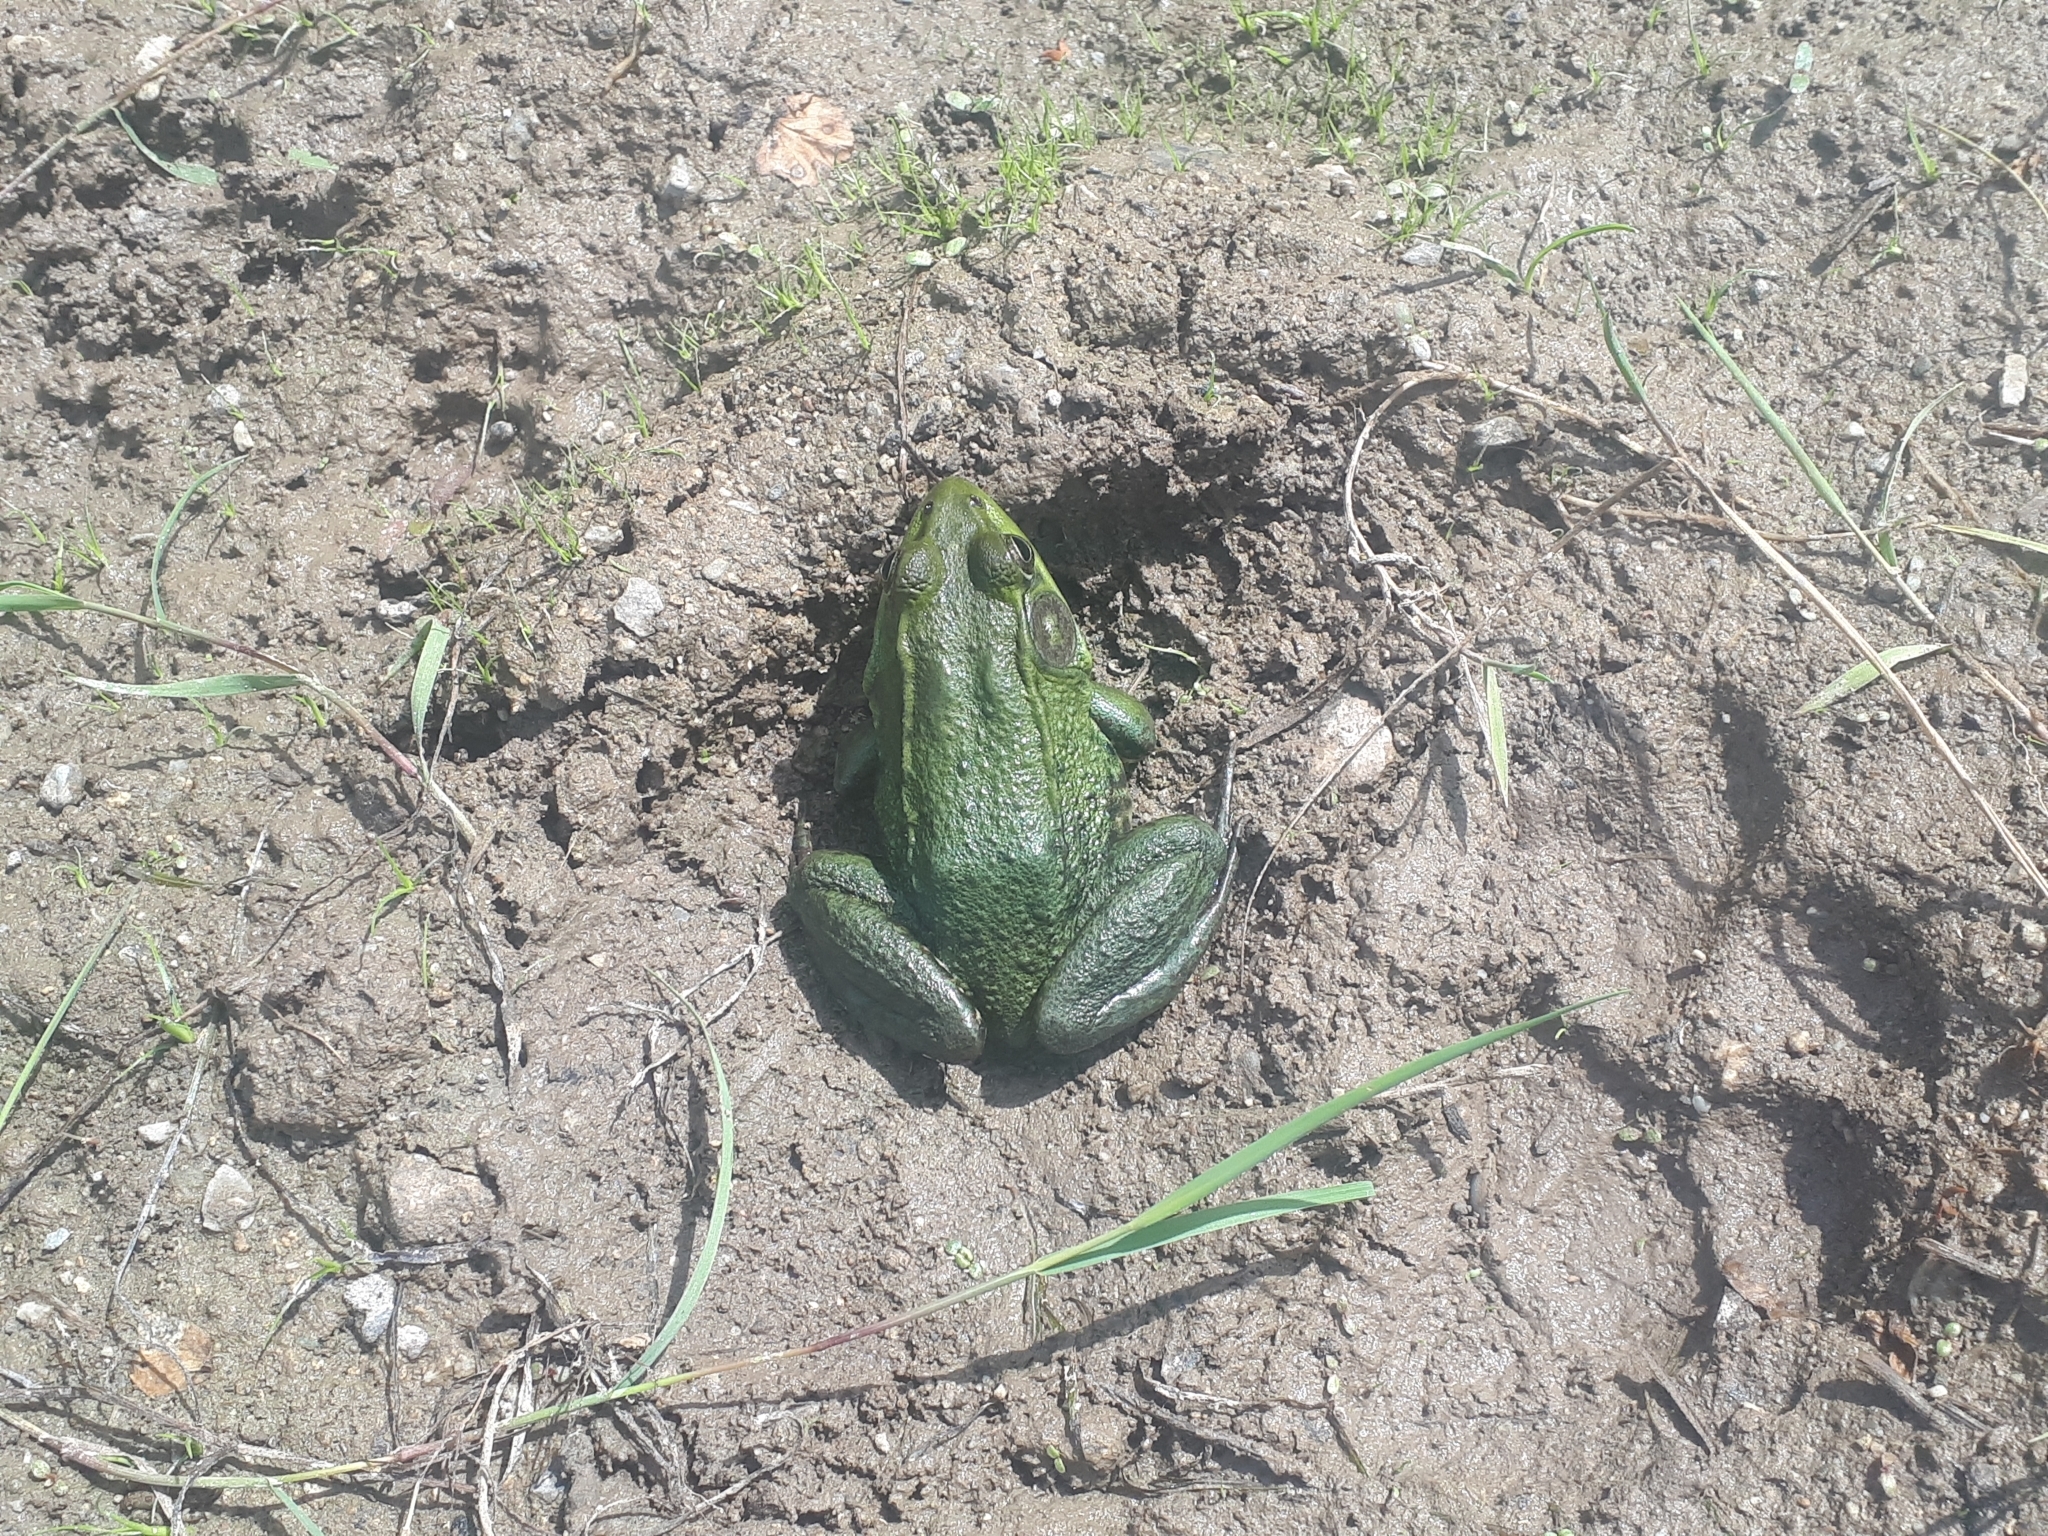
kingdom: Animalia
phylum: Chordata
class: Amphibia
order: Anura
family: Ranidae
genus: Lithobates
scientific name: Lithobates clamitans
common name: Green frog
